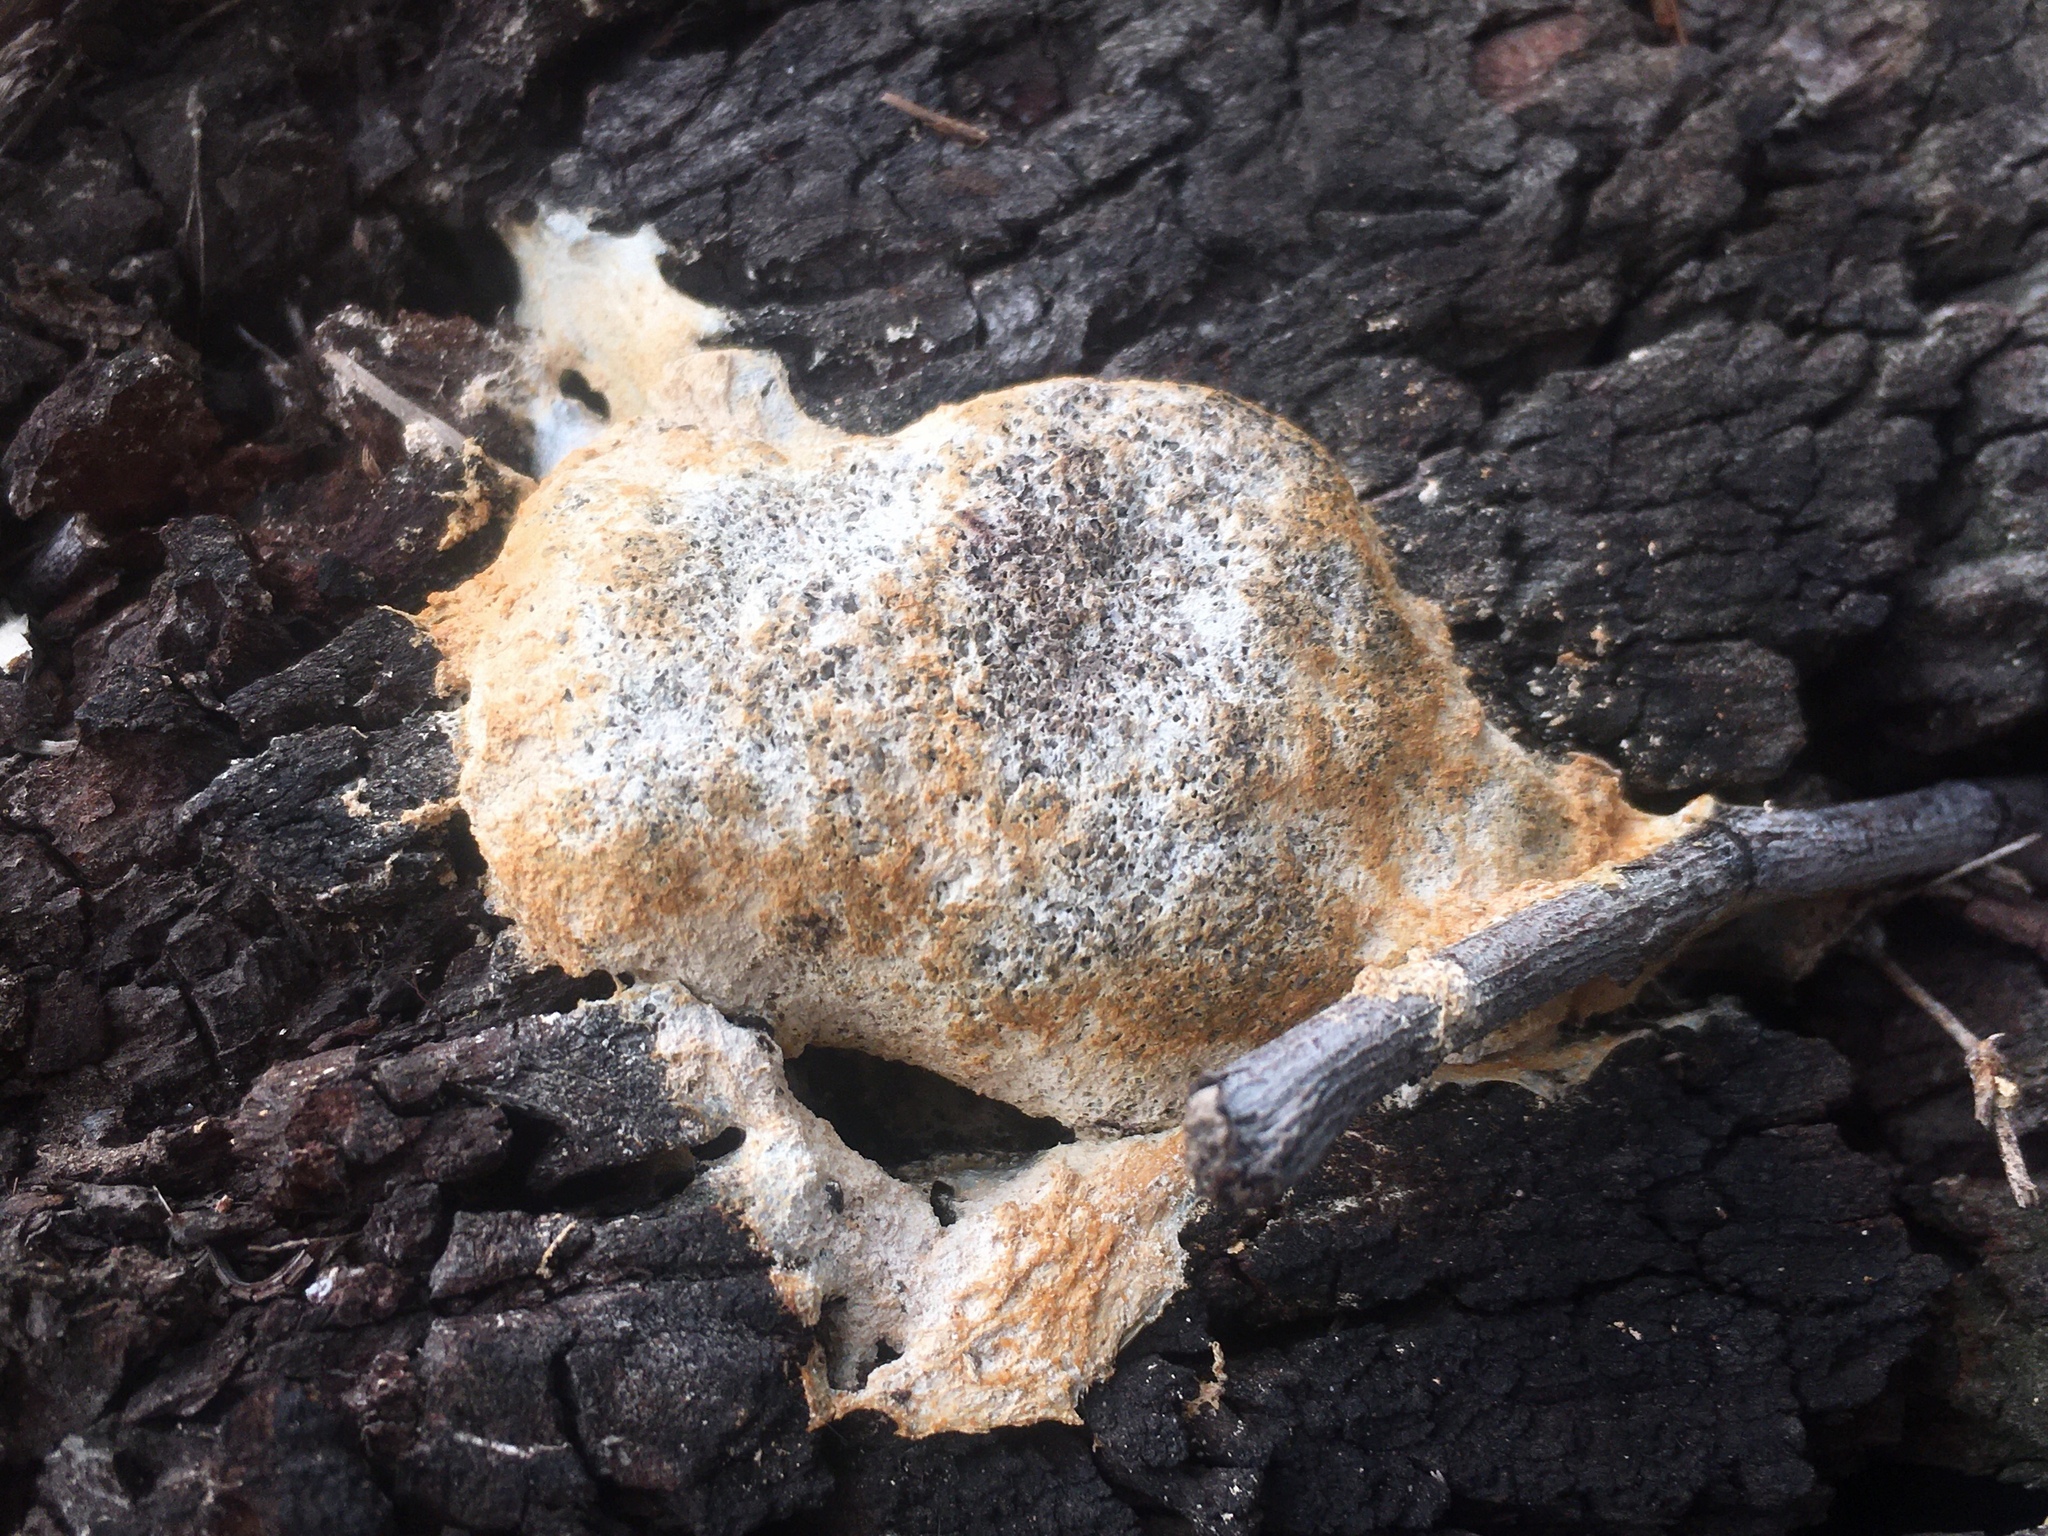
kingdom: Protozoa
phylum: Mycetozoa
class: Myxomycetes
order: Physarales
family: Physaraceae
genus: Fuligo
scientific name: Fuligo septica
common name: Dog vomit slime mold
